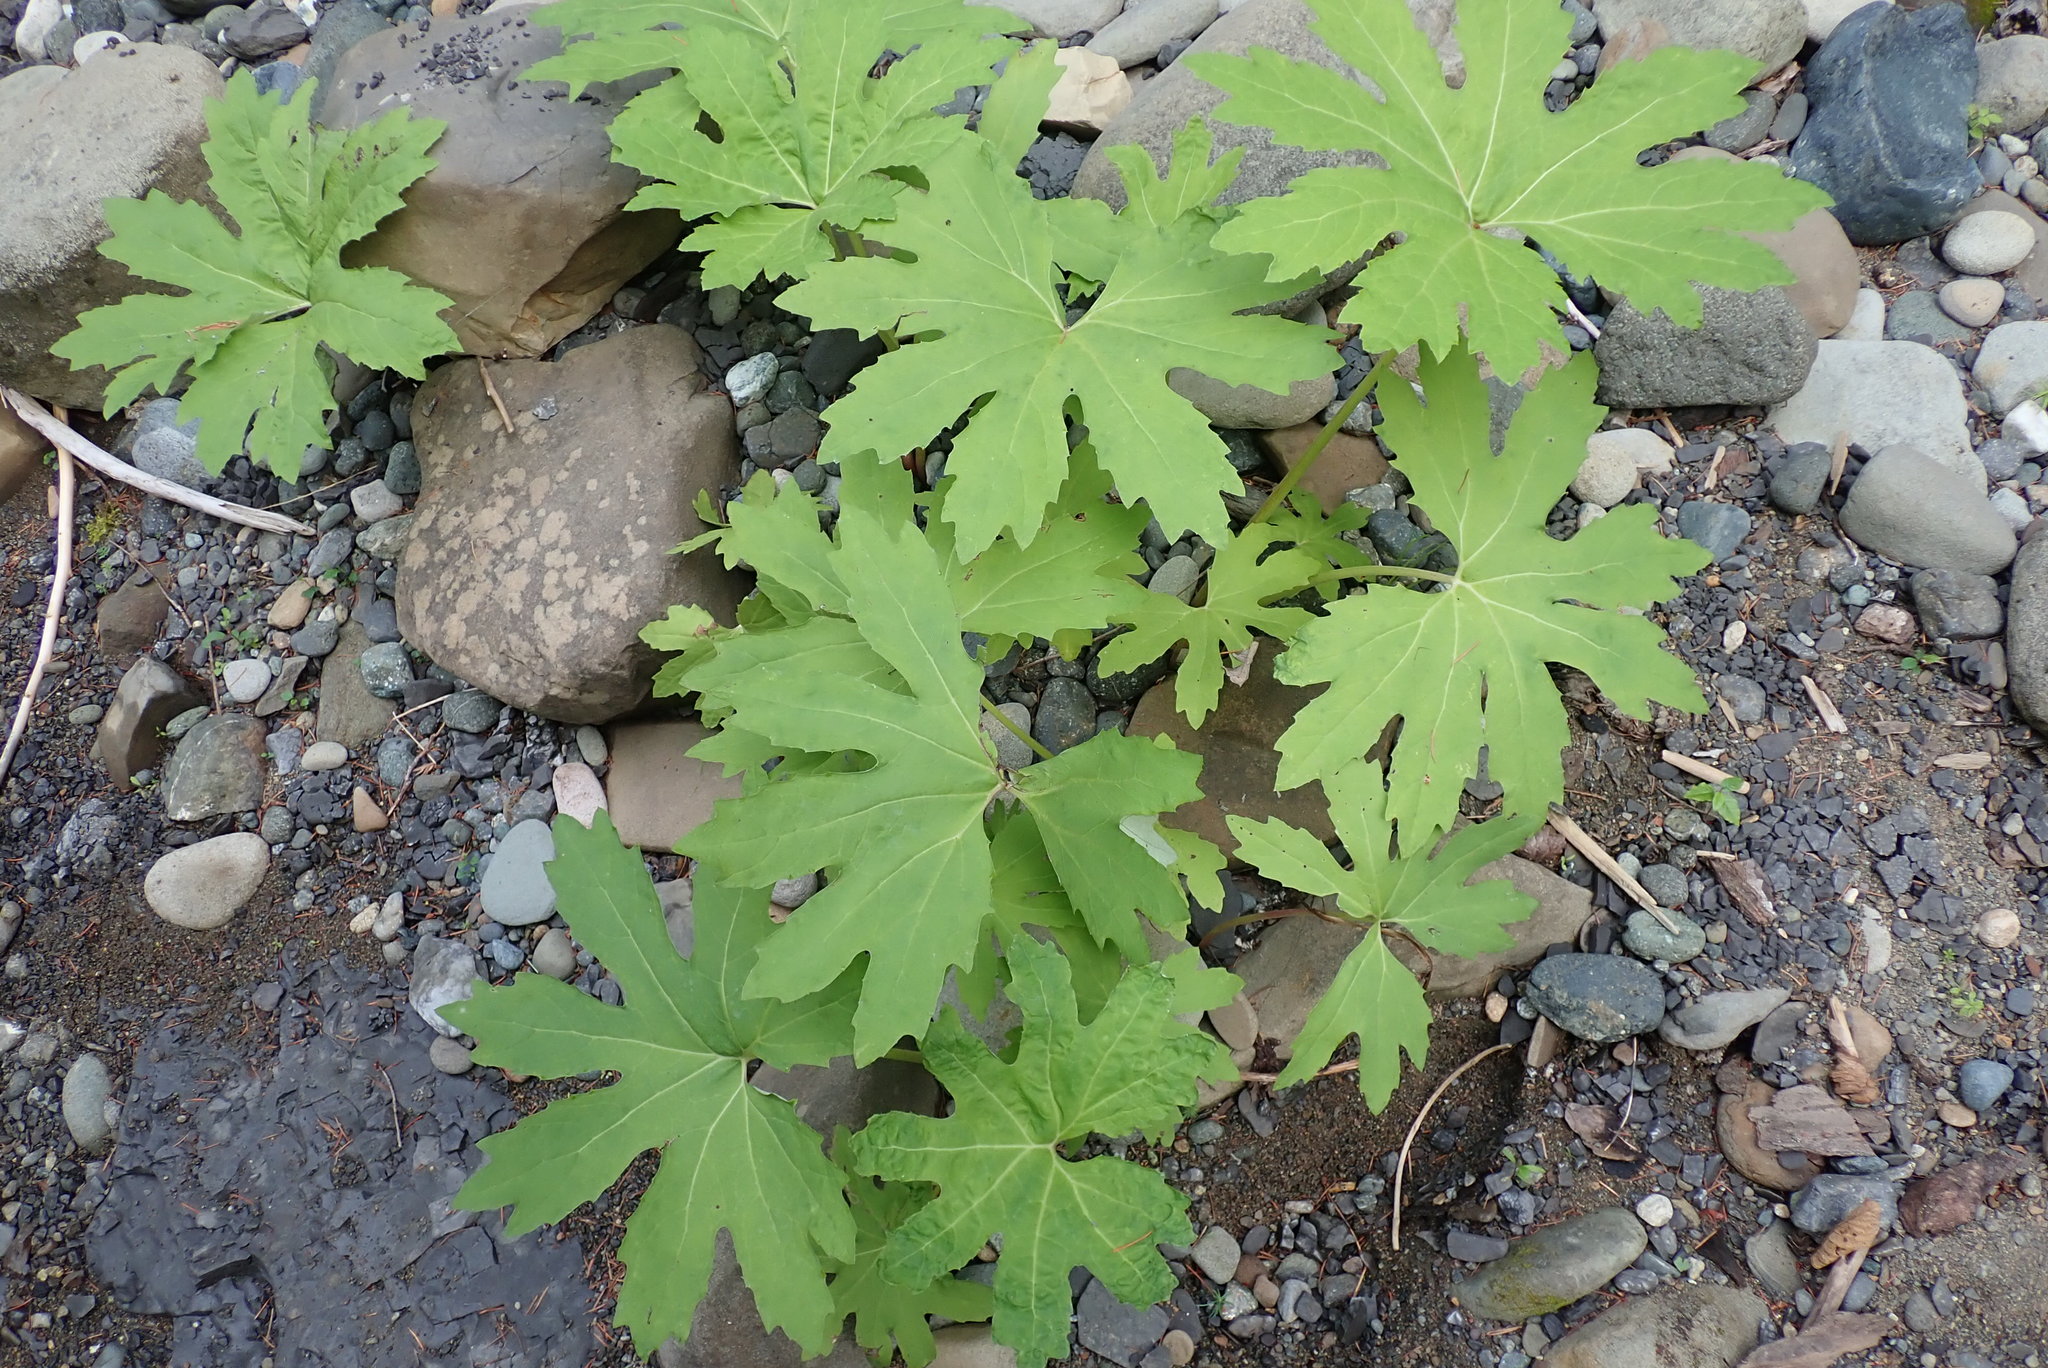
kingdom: Plantae
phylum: Tracheophyta
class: Magnoliopsida
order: Asterales
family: Asteraceae
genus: Petasites
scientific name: Petasites frigidus
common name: Arctic butterbur
